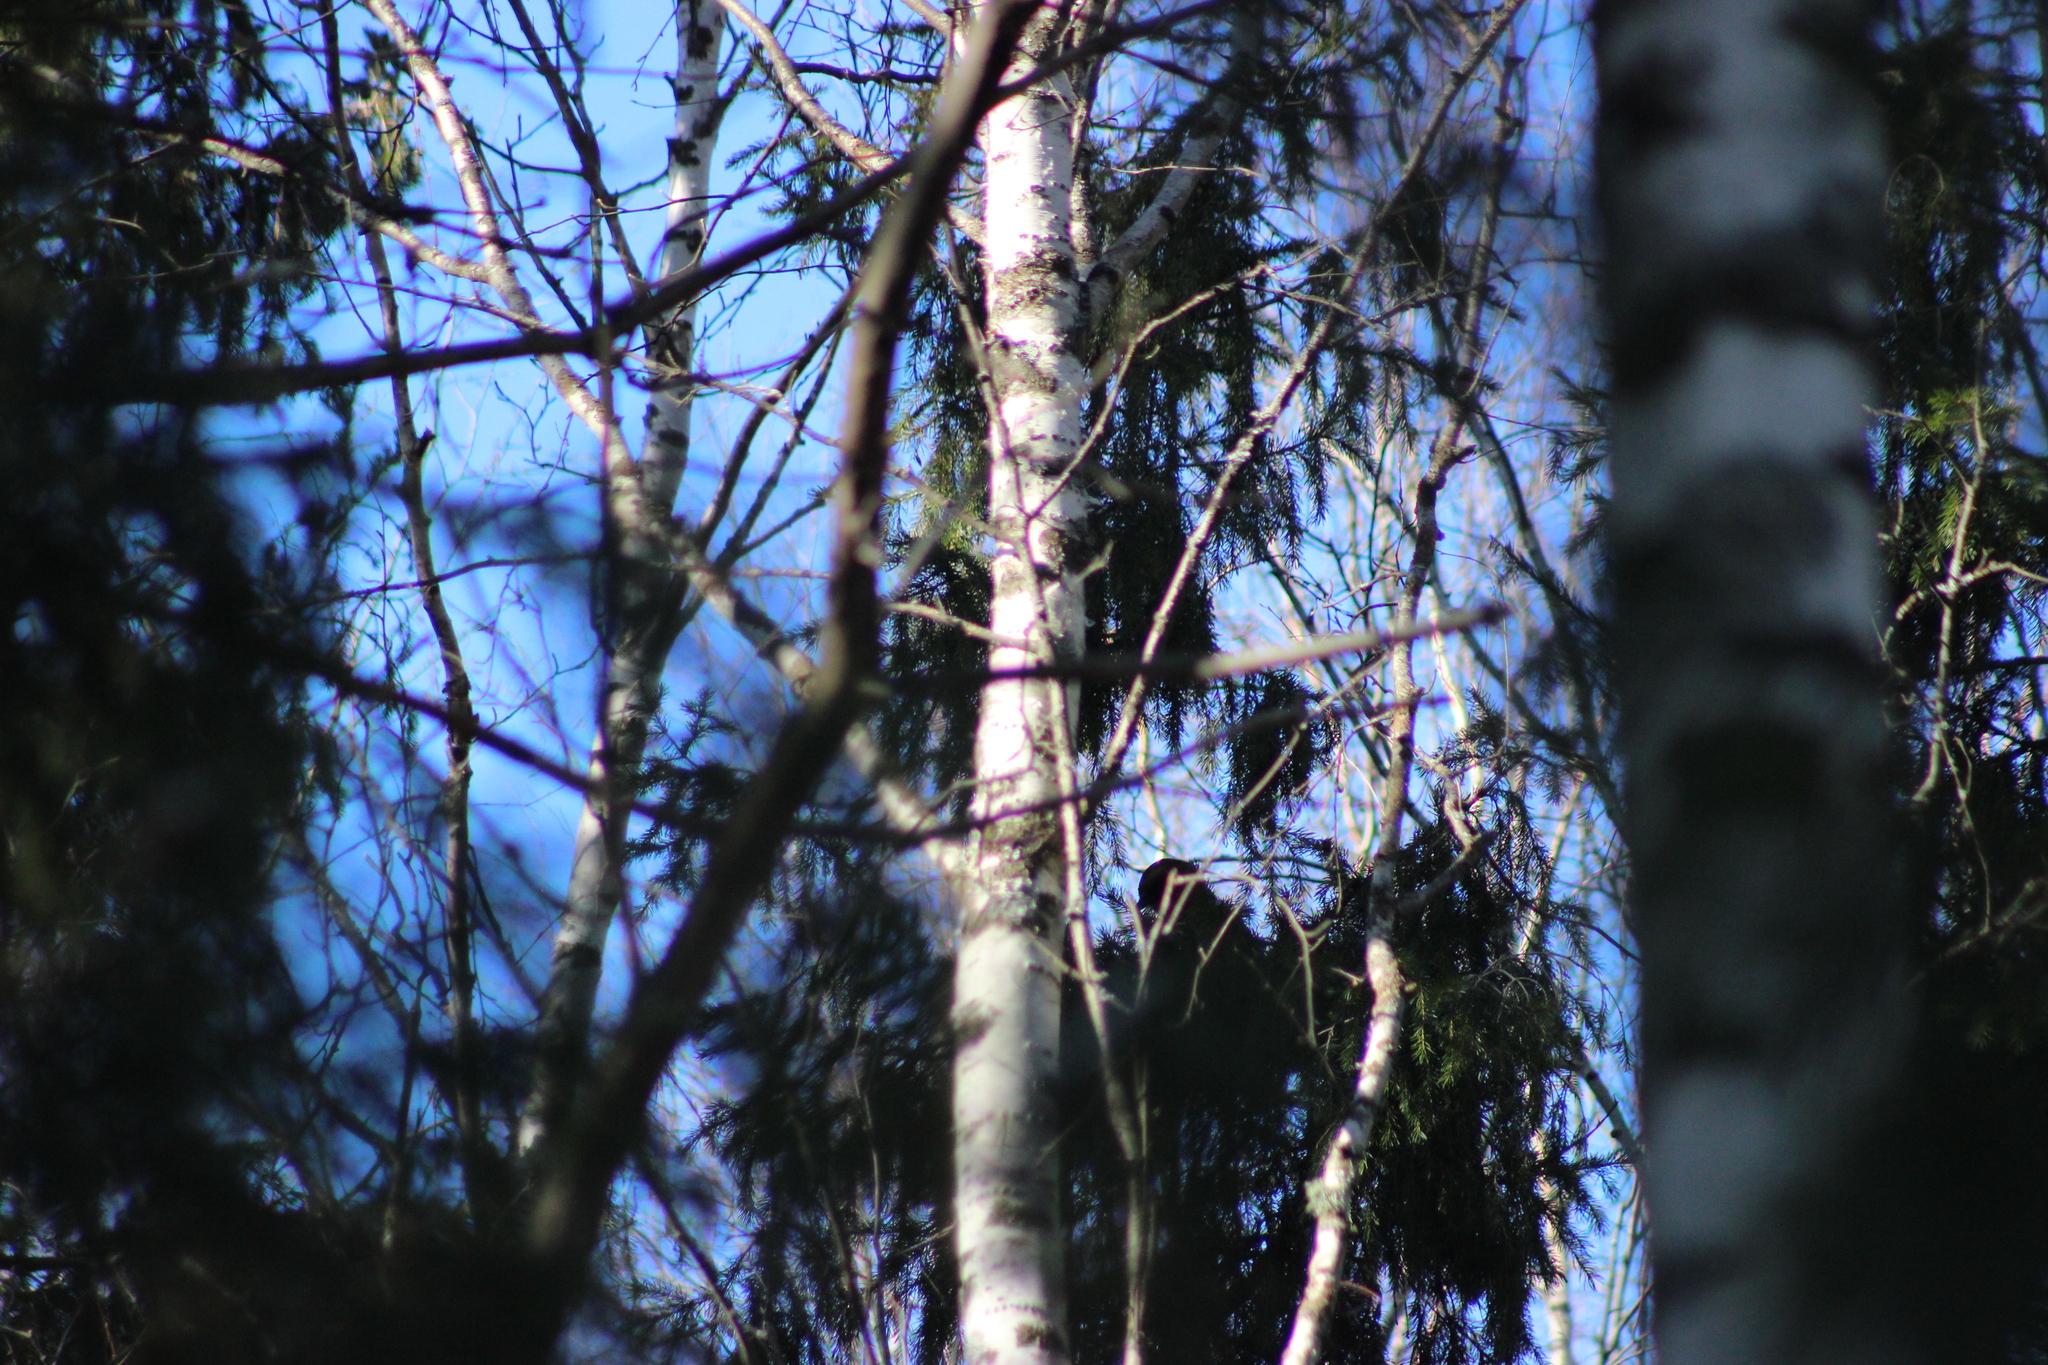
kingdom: Animalia
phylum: Chordata
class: Aves
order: Passeriformes
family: Corvidae
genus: Garrulus
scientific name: Garrulus glandarius
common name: Eurasian jay
